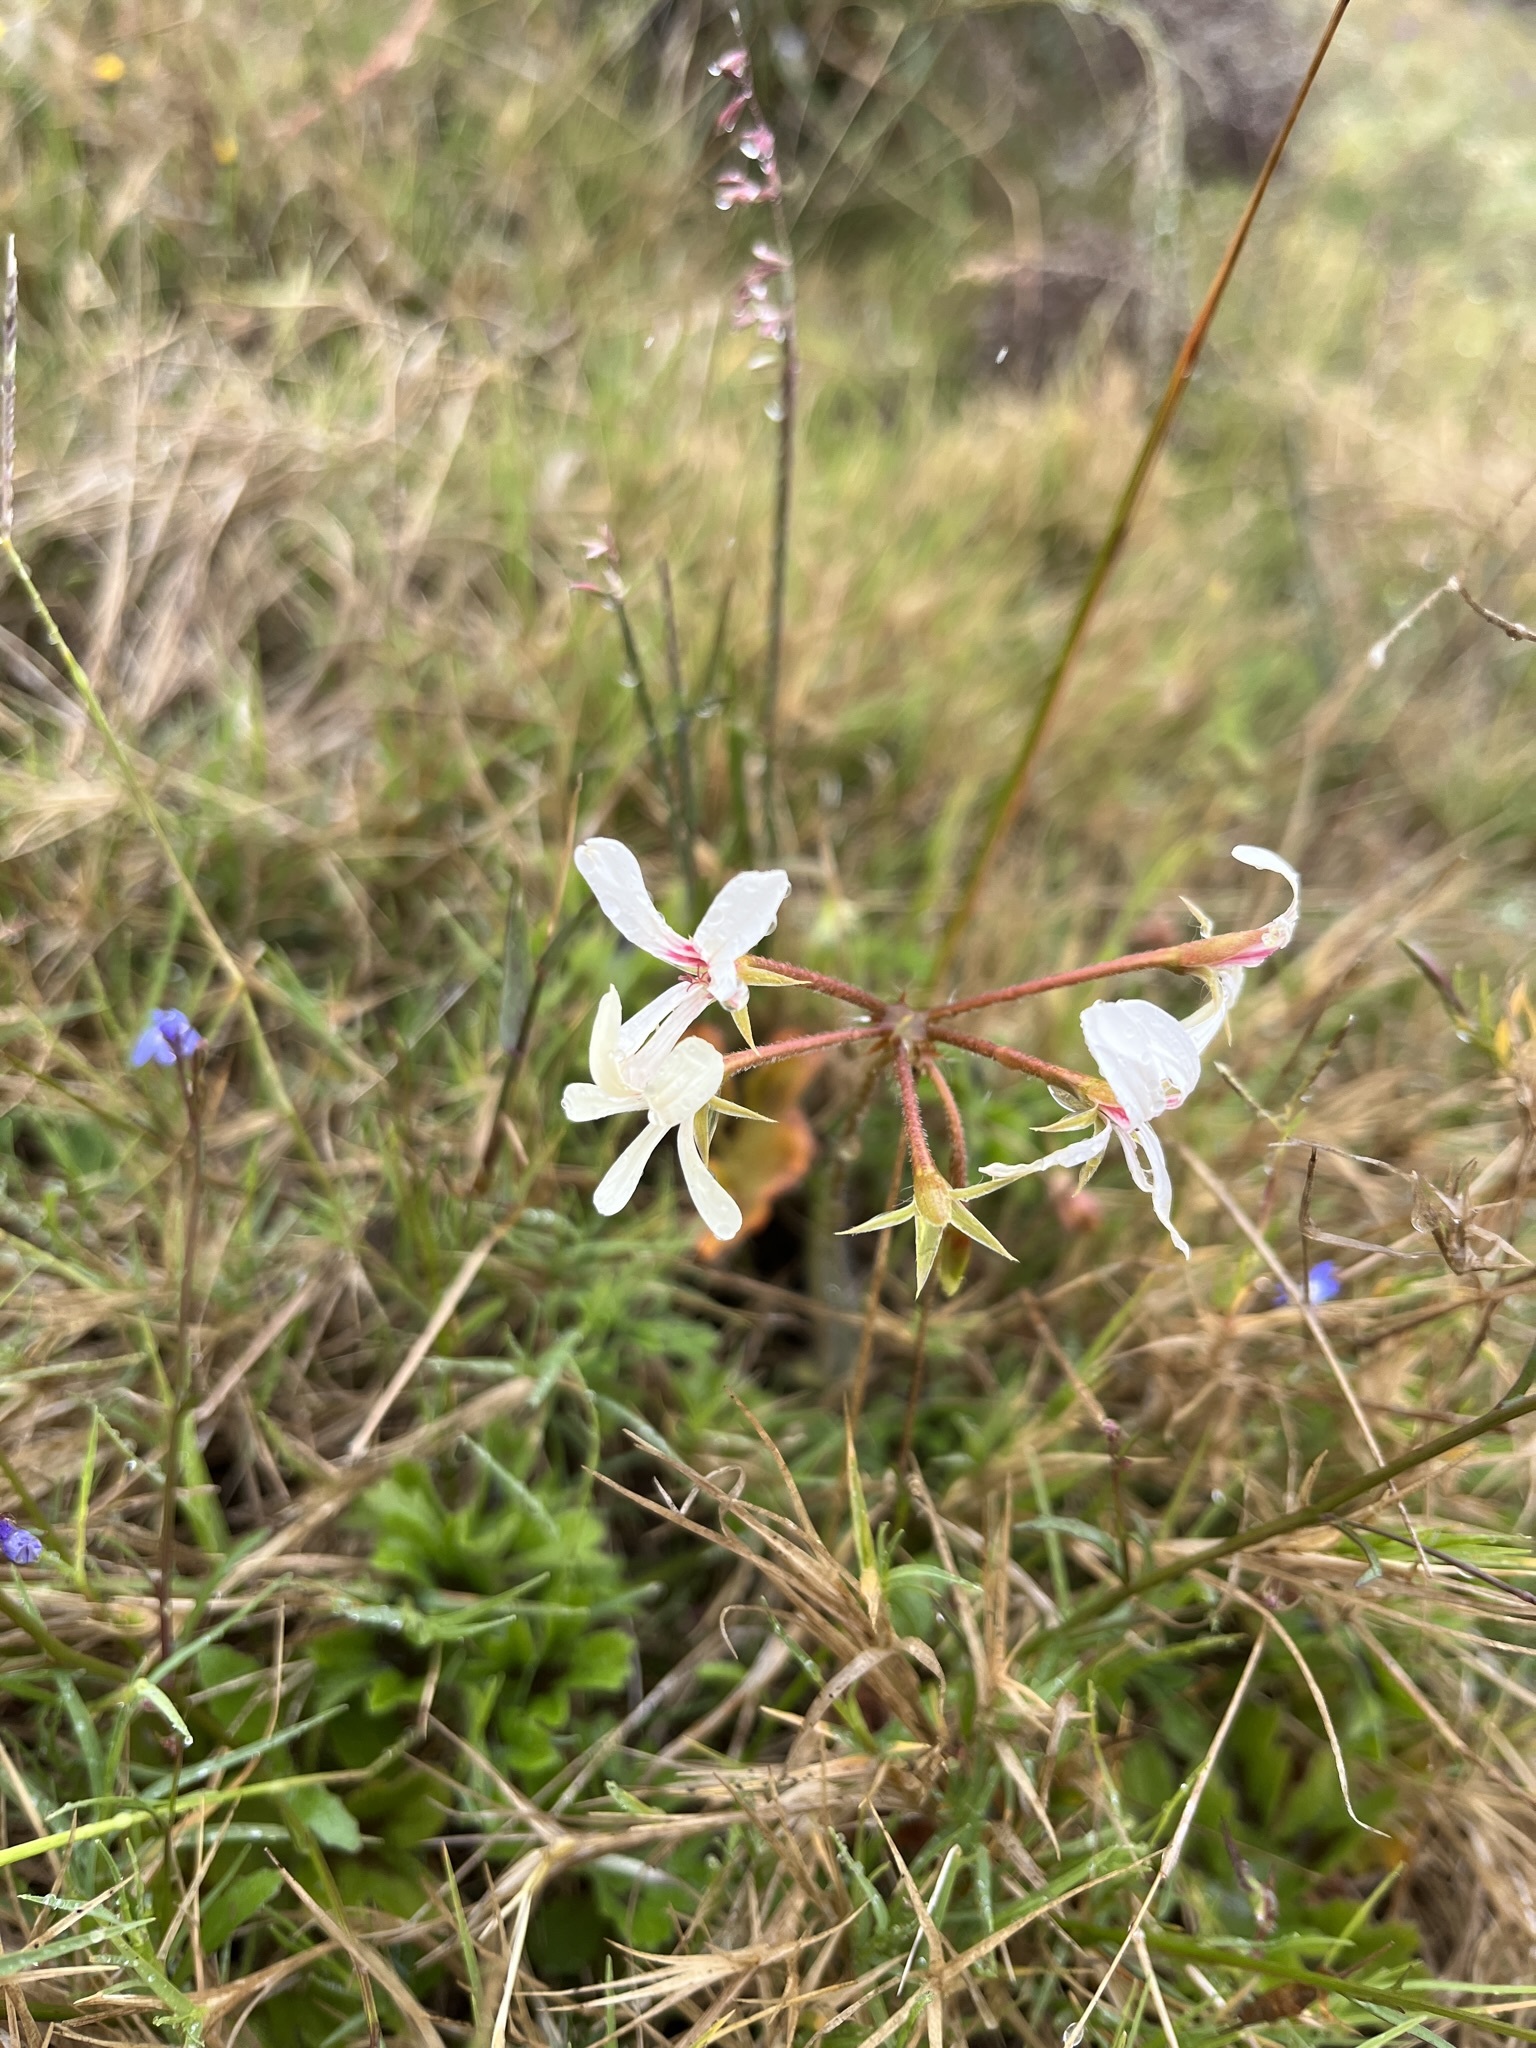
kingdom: Plantae
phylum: Tracheophyta
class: Magnoliopsida
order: Geraniales
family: Geraniaceae
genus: Pelargonium
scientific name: Pelargonium alchemilloides
